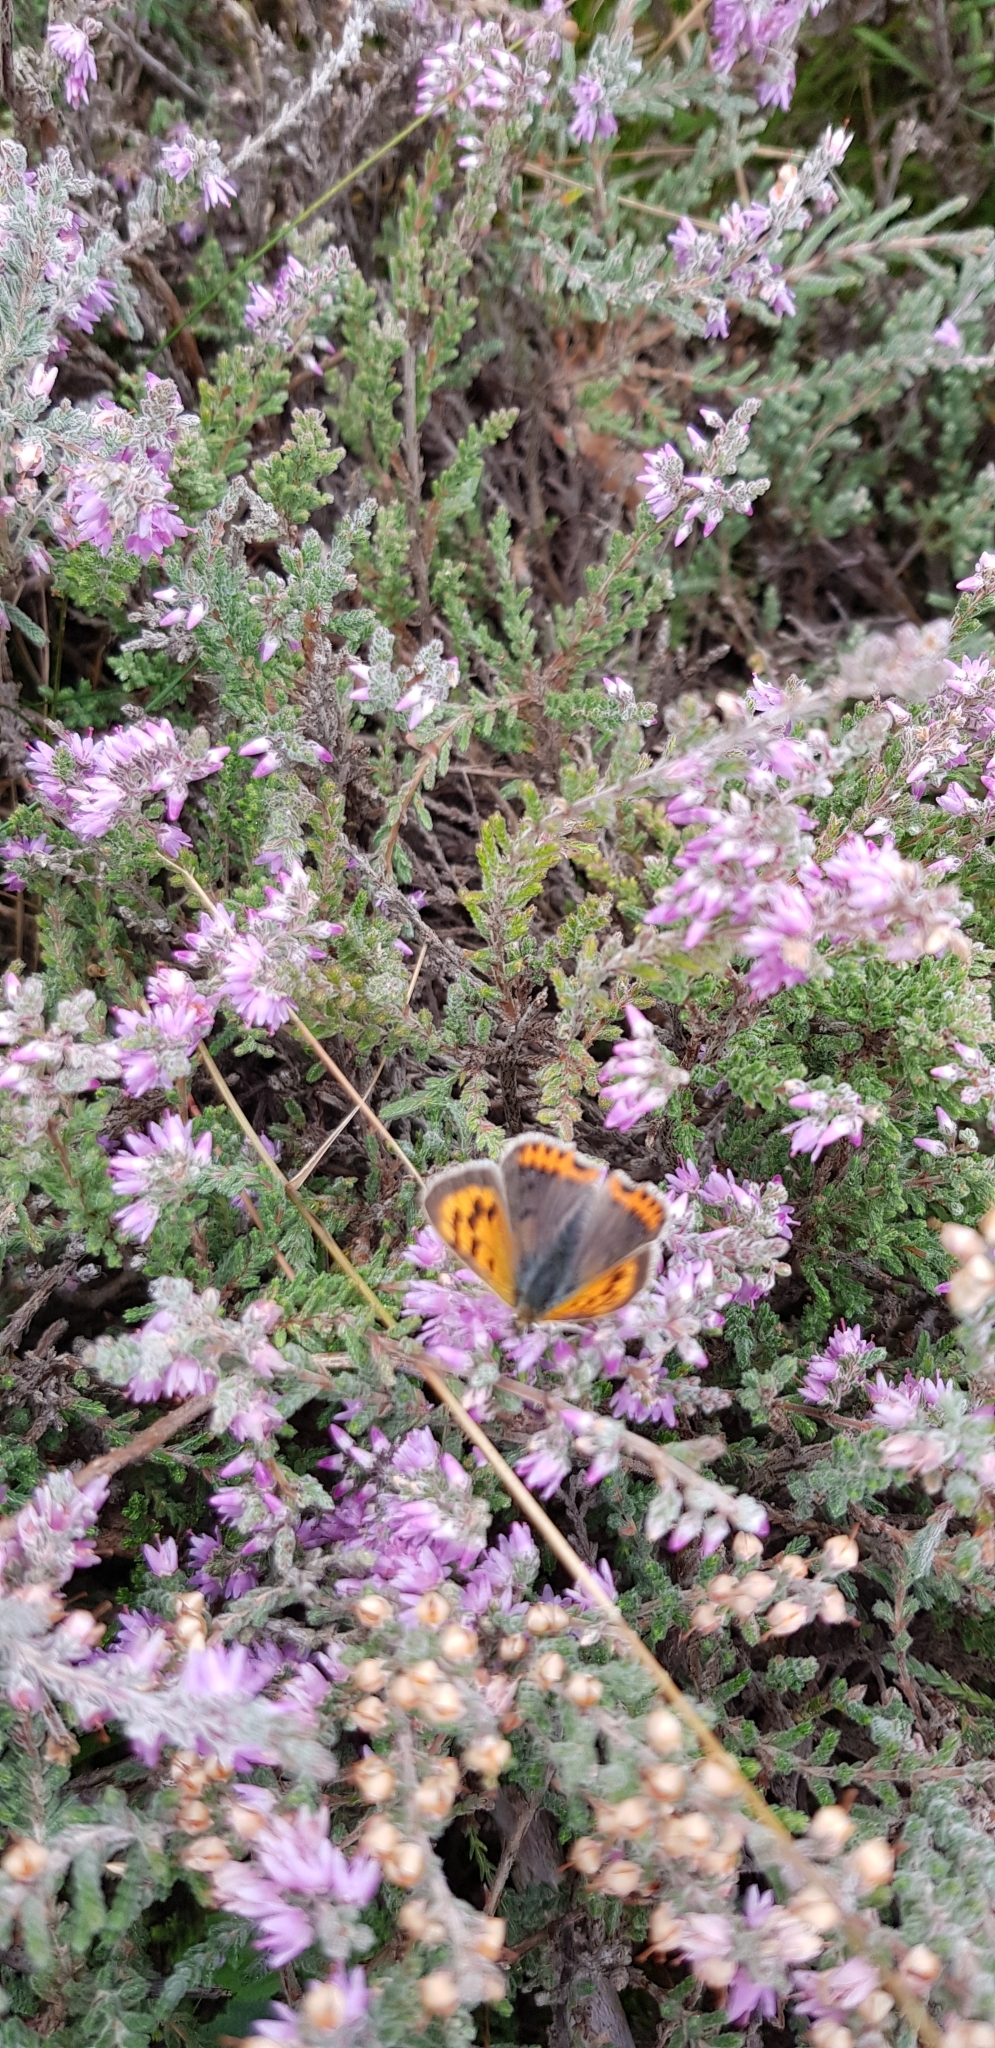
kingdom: Animalia
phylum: Arthropoda
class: Insecta
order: Lepidoptera
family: Lycaenidae
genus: Lycaena
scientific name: Lycaena phlaeas
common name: Small copper
